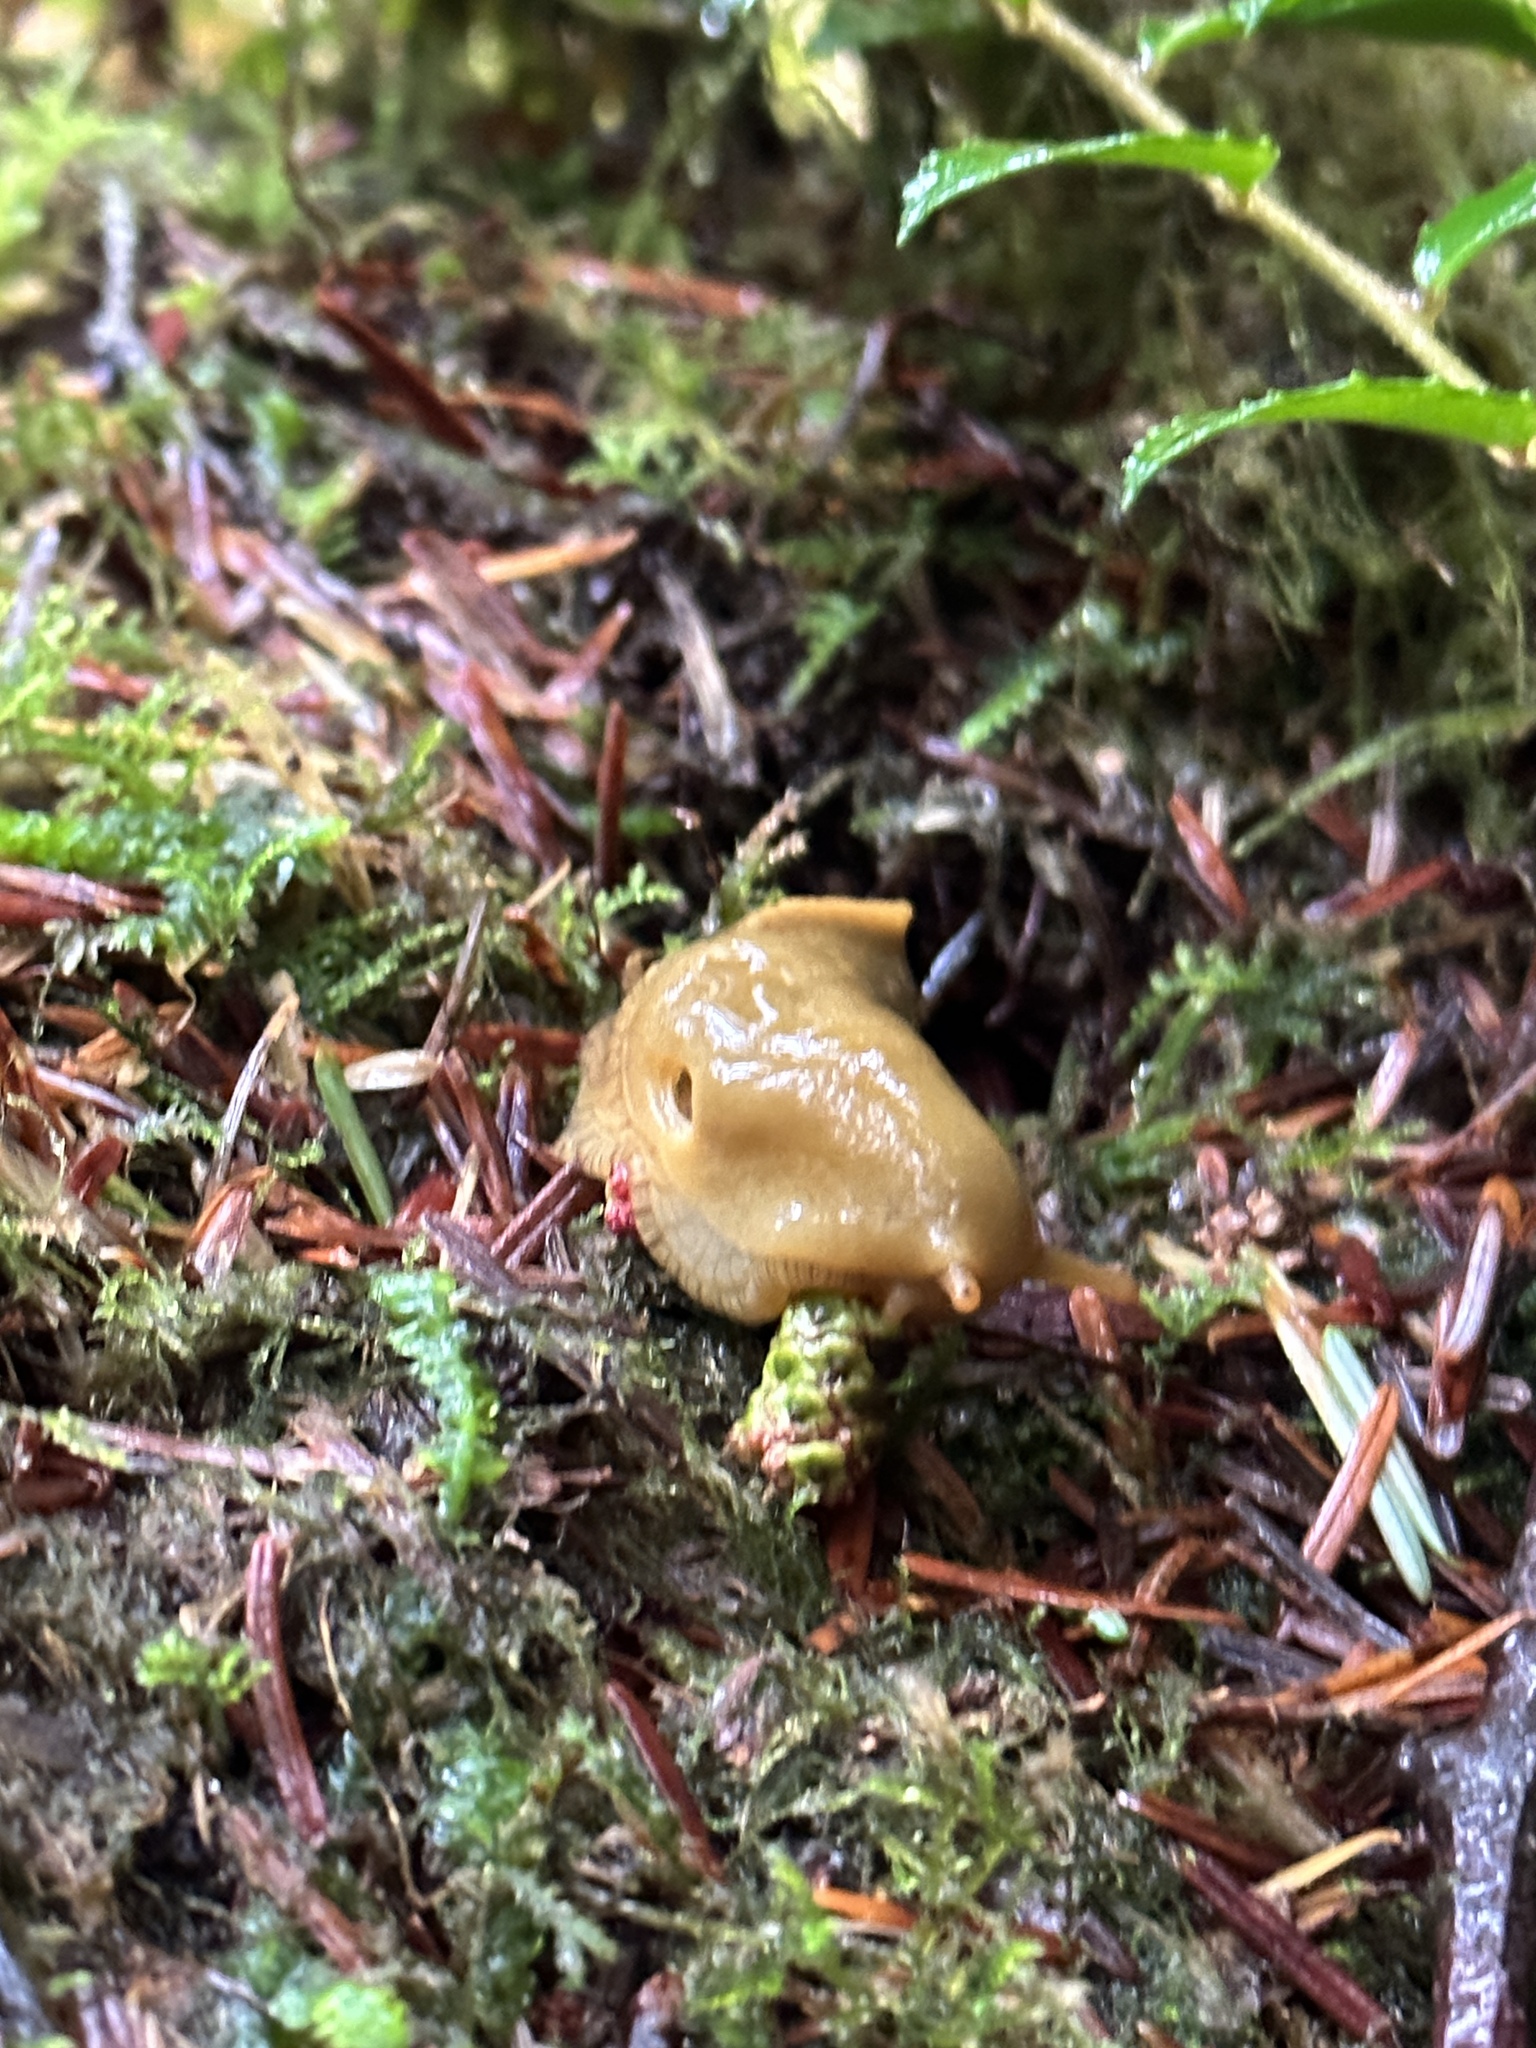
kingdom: Animalia
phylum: Mollusca
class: Gastropoda
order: Stylommatophora
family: Ariolimacidae
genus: Ariolimax
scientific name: Ariolimax columbianus
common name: Pacific banana slug
